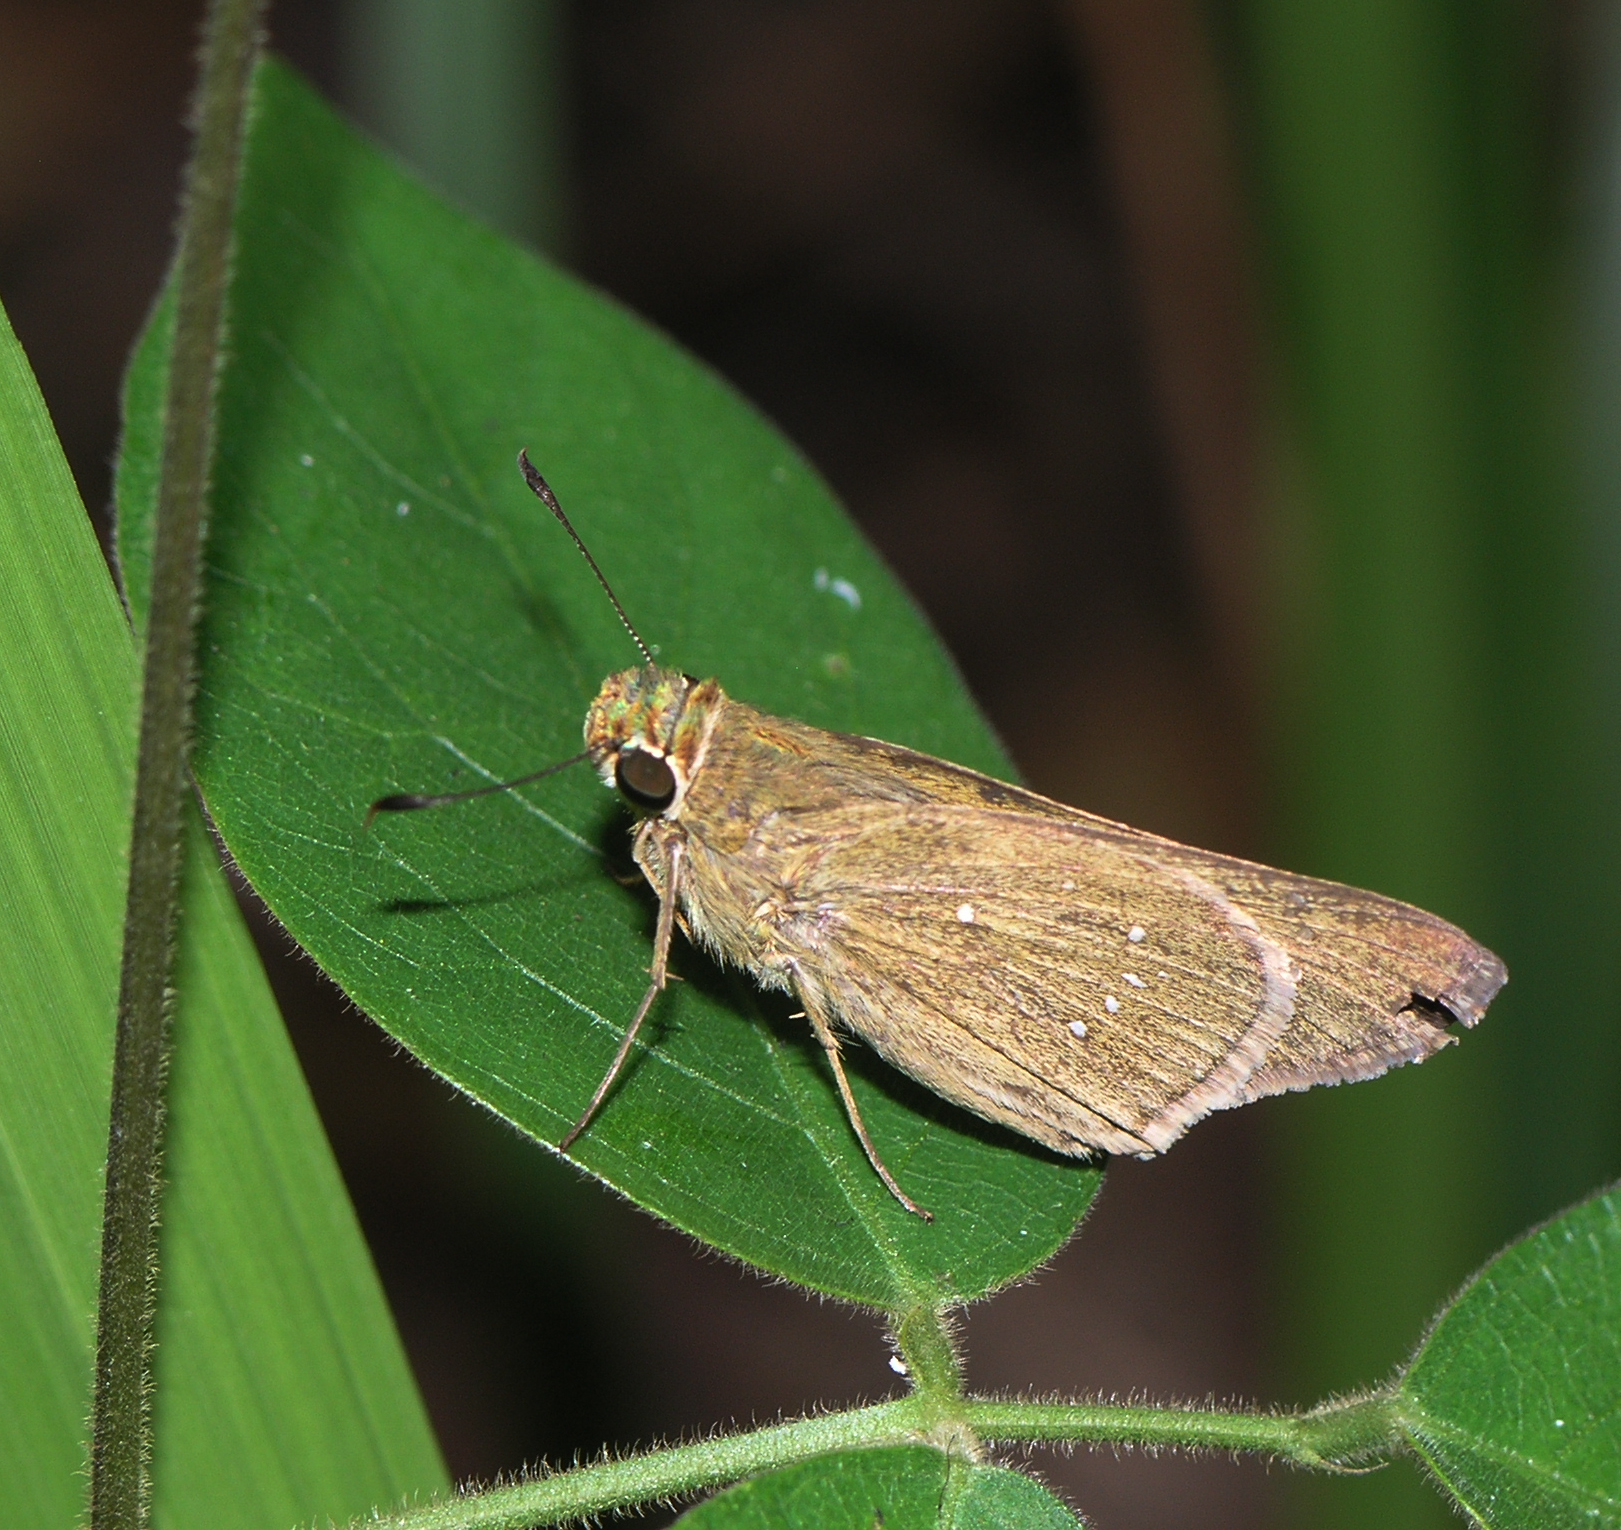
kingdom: Animalia
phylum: Arthropoda
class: Insecta
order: Lepidoptera
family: Hesperiidae
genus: Pelopidas
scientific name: Pelopidas mathias
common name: Black-branded swift
